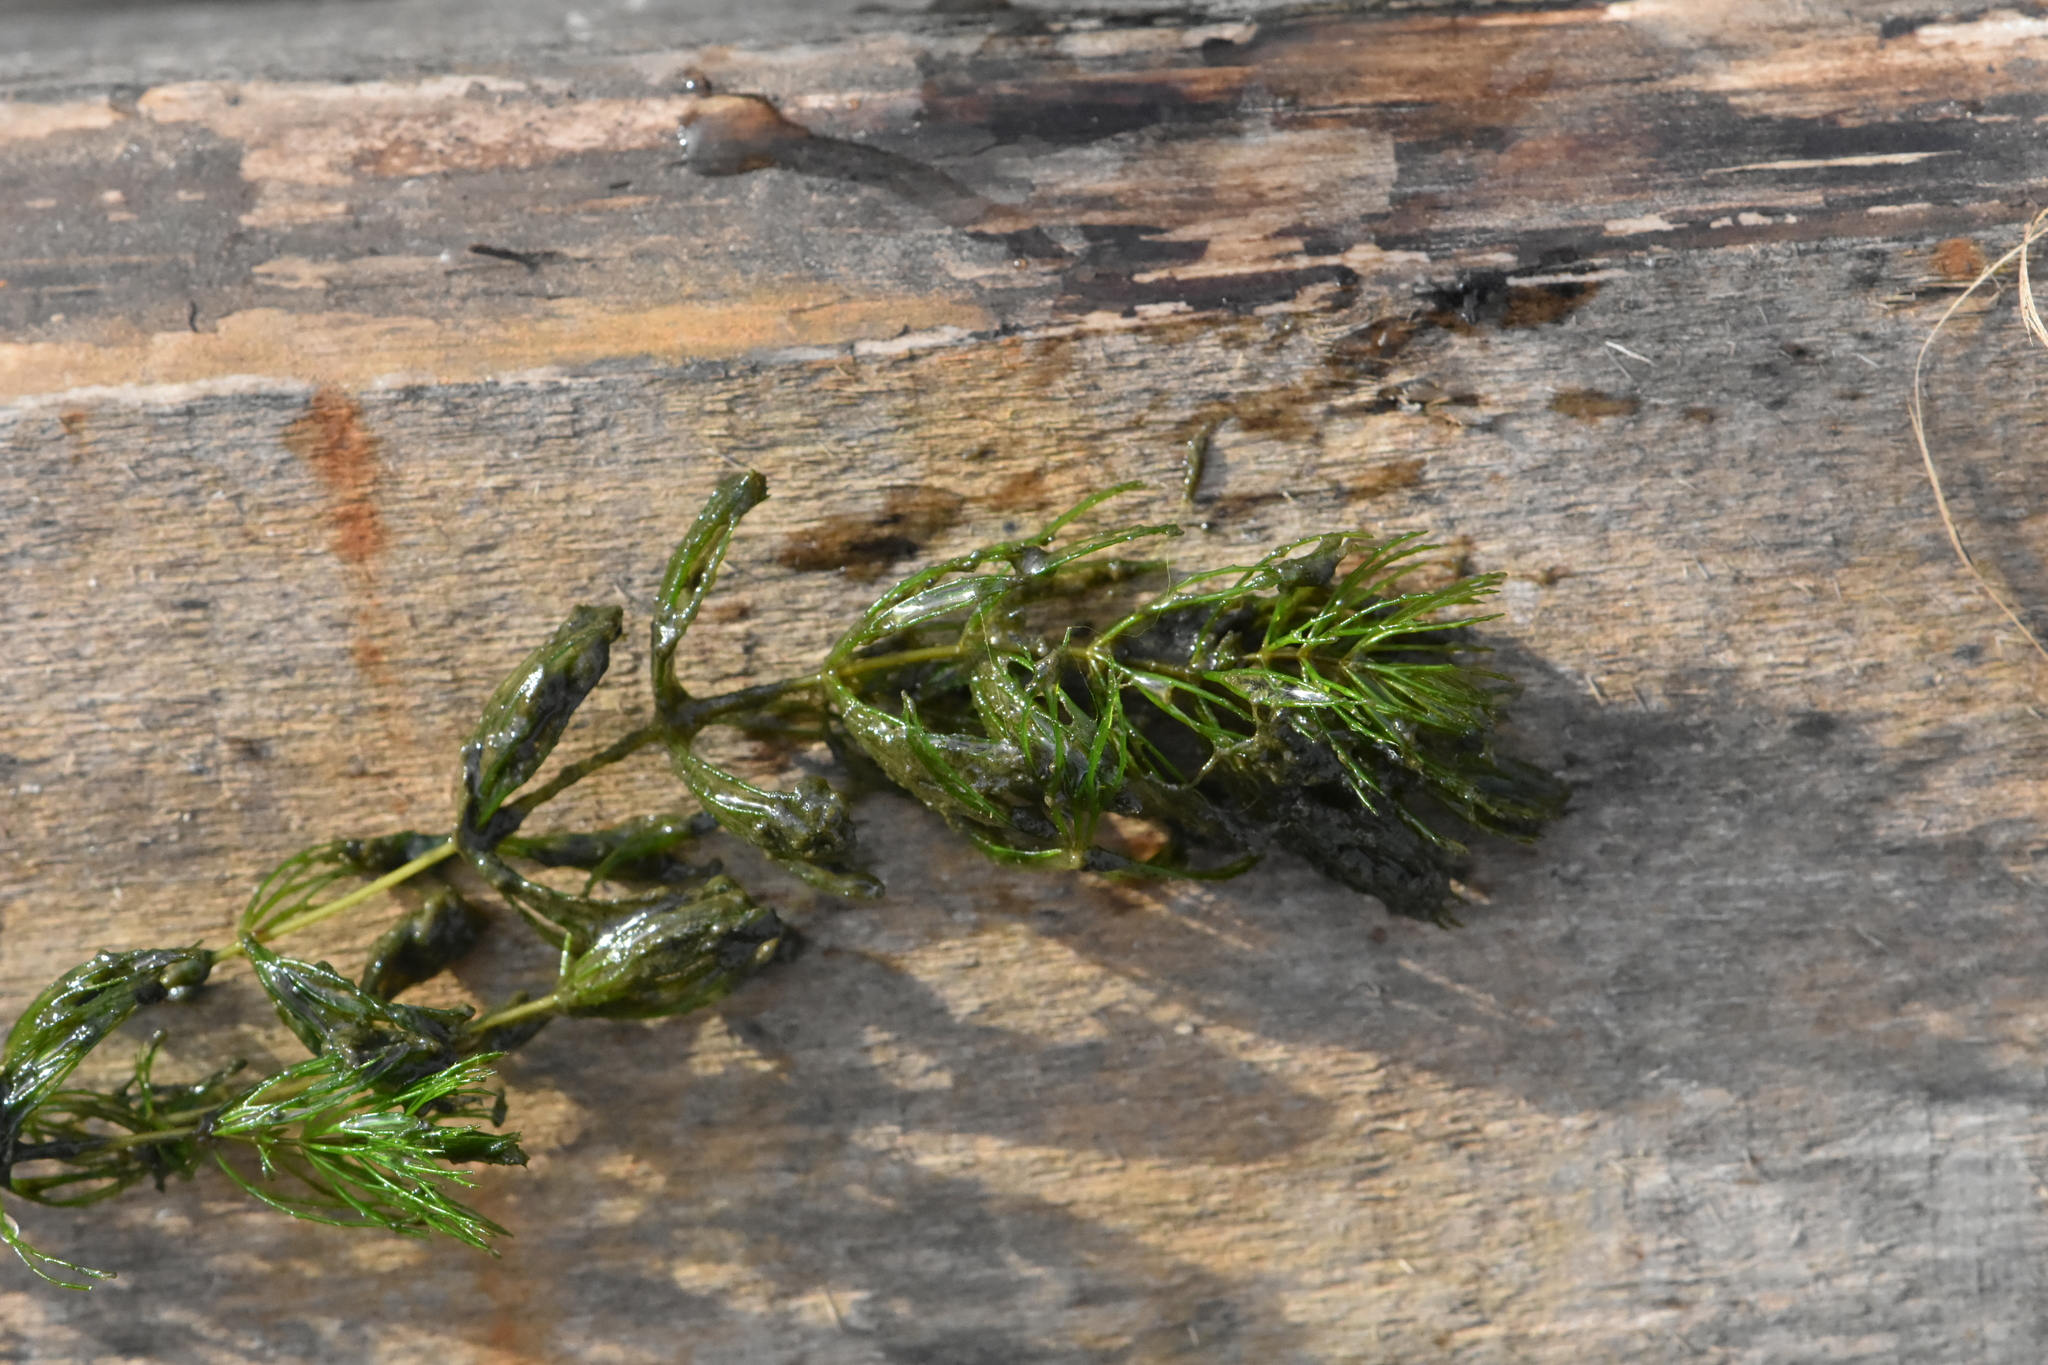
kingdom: Plantae
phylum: Tracheophyta
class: Magnoliopsida
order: Ceratophyllales
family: Ceratophyllaceae
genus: Ceratophyllum
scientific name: Ceratophyllum demersum
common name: Rigid hornwort
